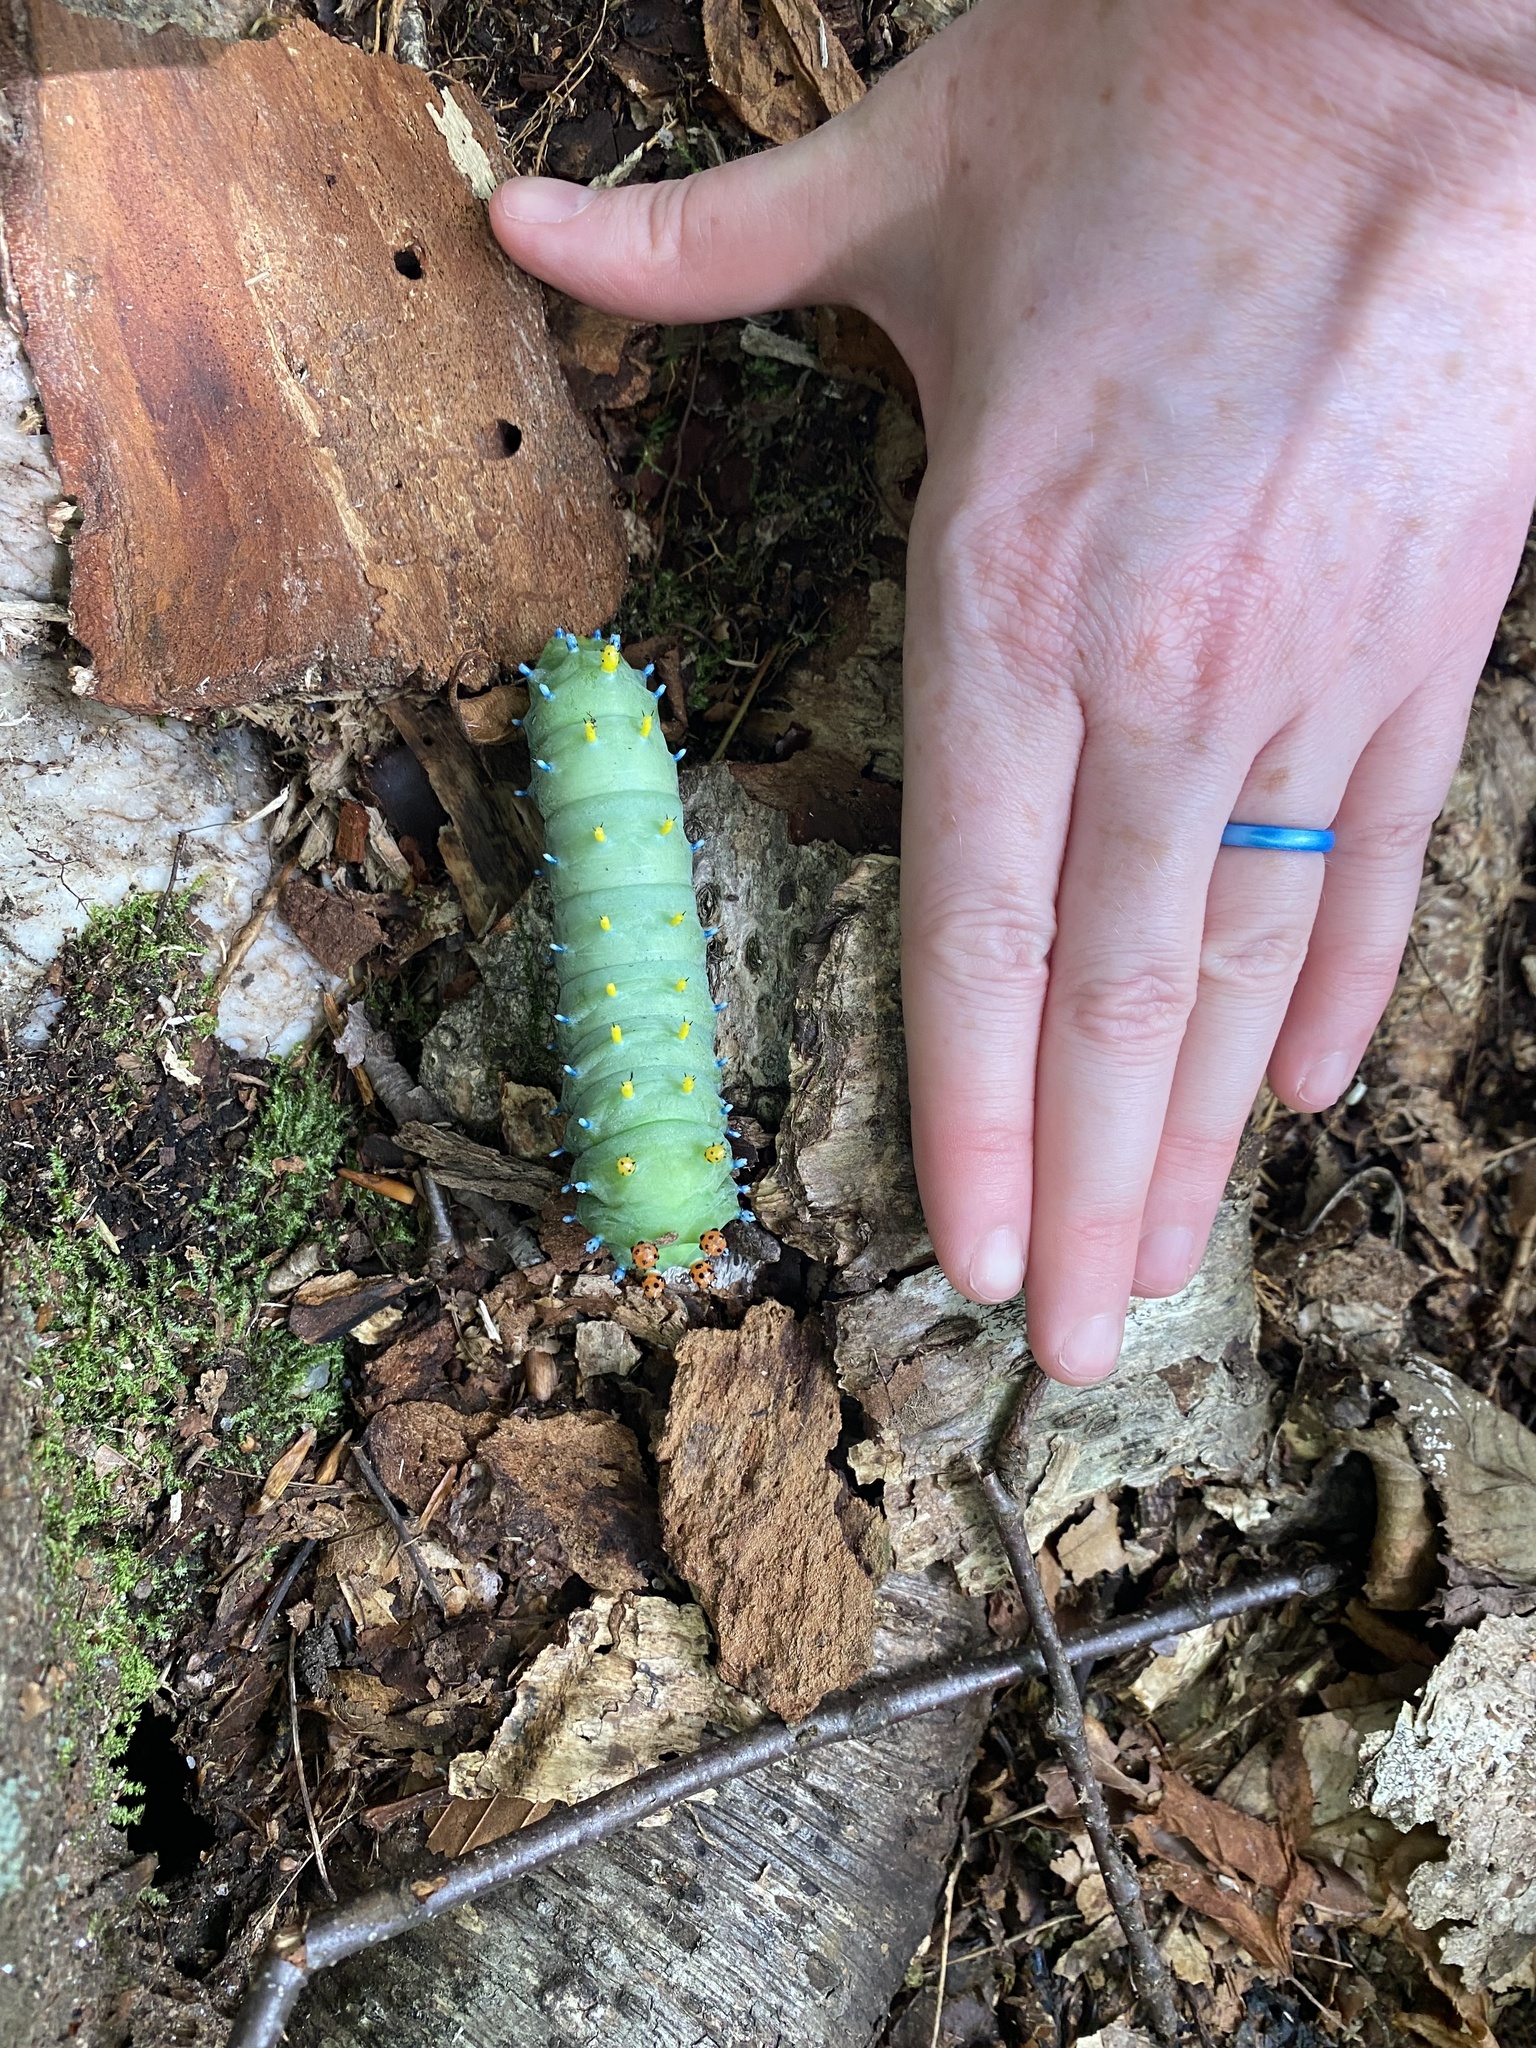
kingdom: Animalia
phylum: Arthropoda
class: Insecta
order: Lepidoptera
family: Saturniidae
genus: Hyalophora
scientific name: Hyalophora cecropia
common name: Cecropia silkmoth
